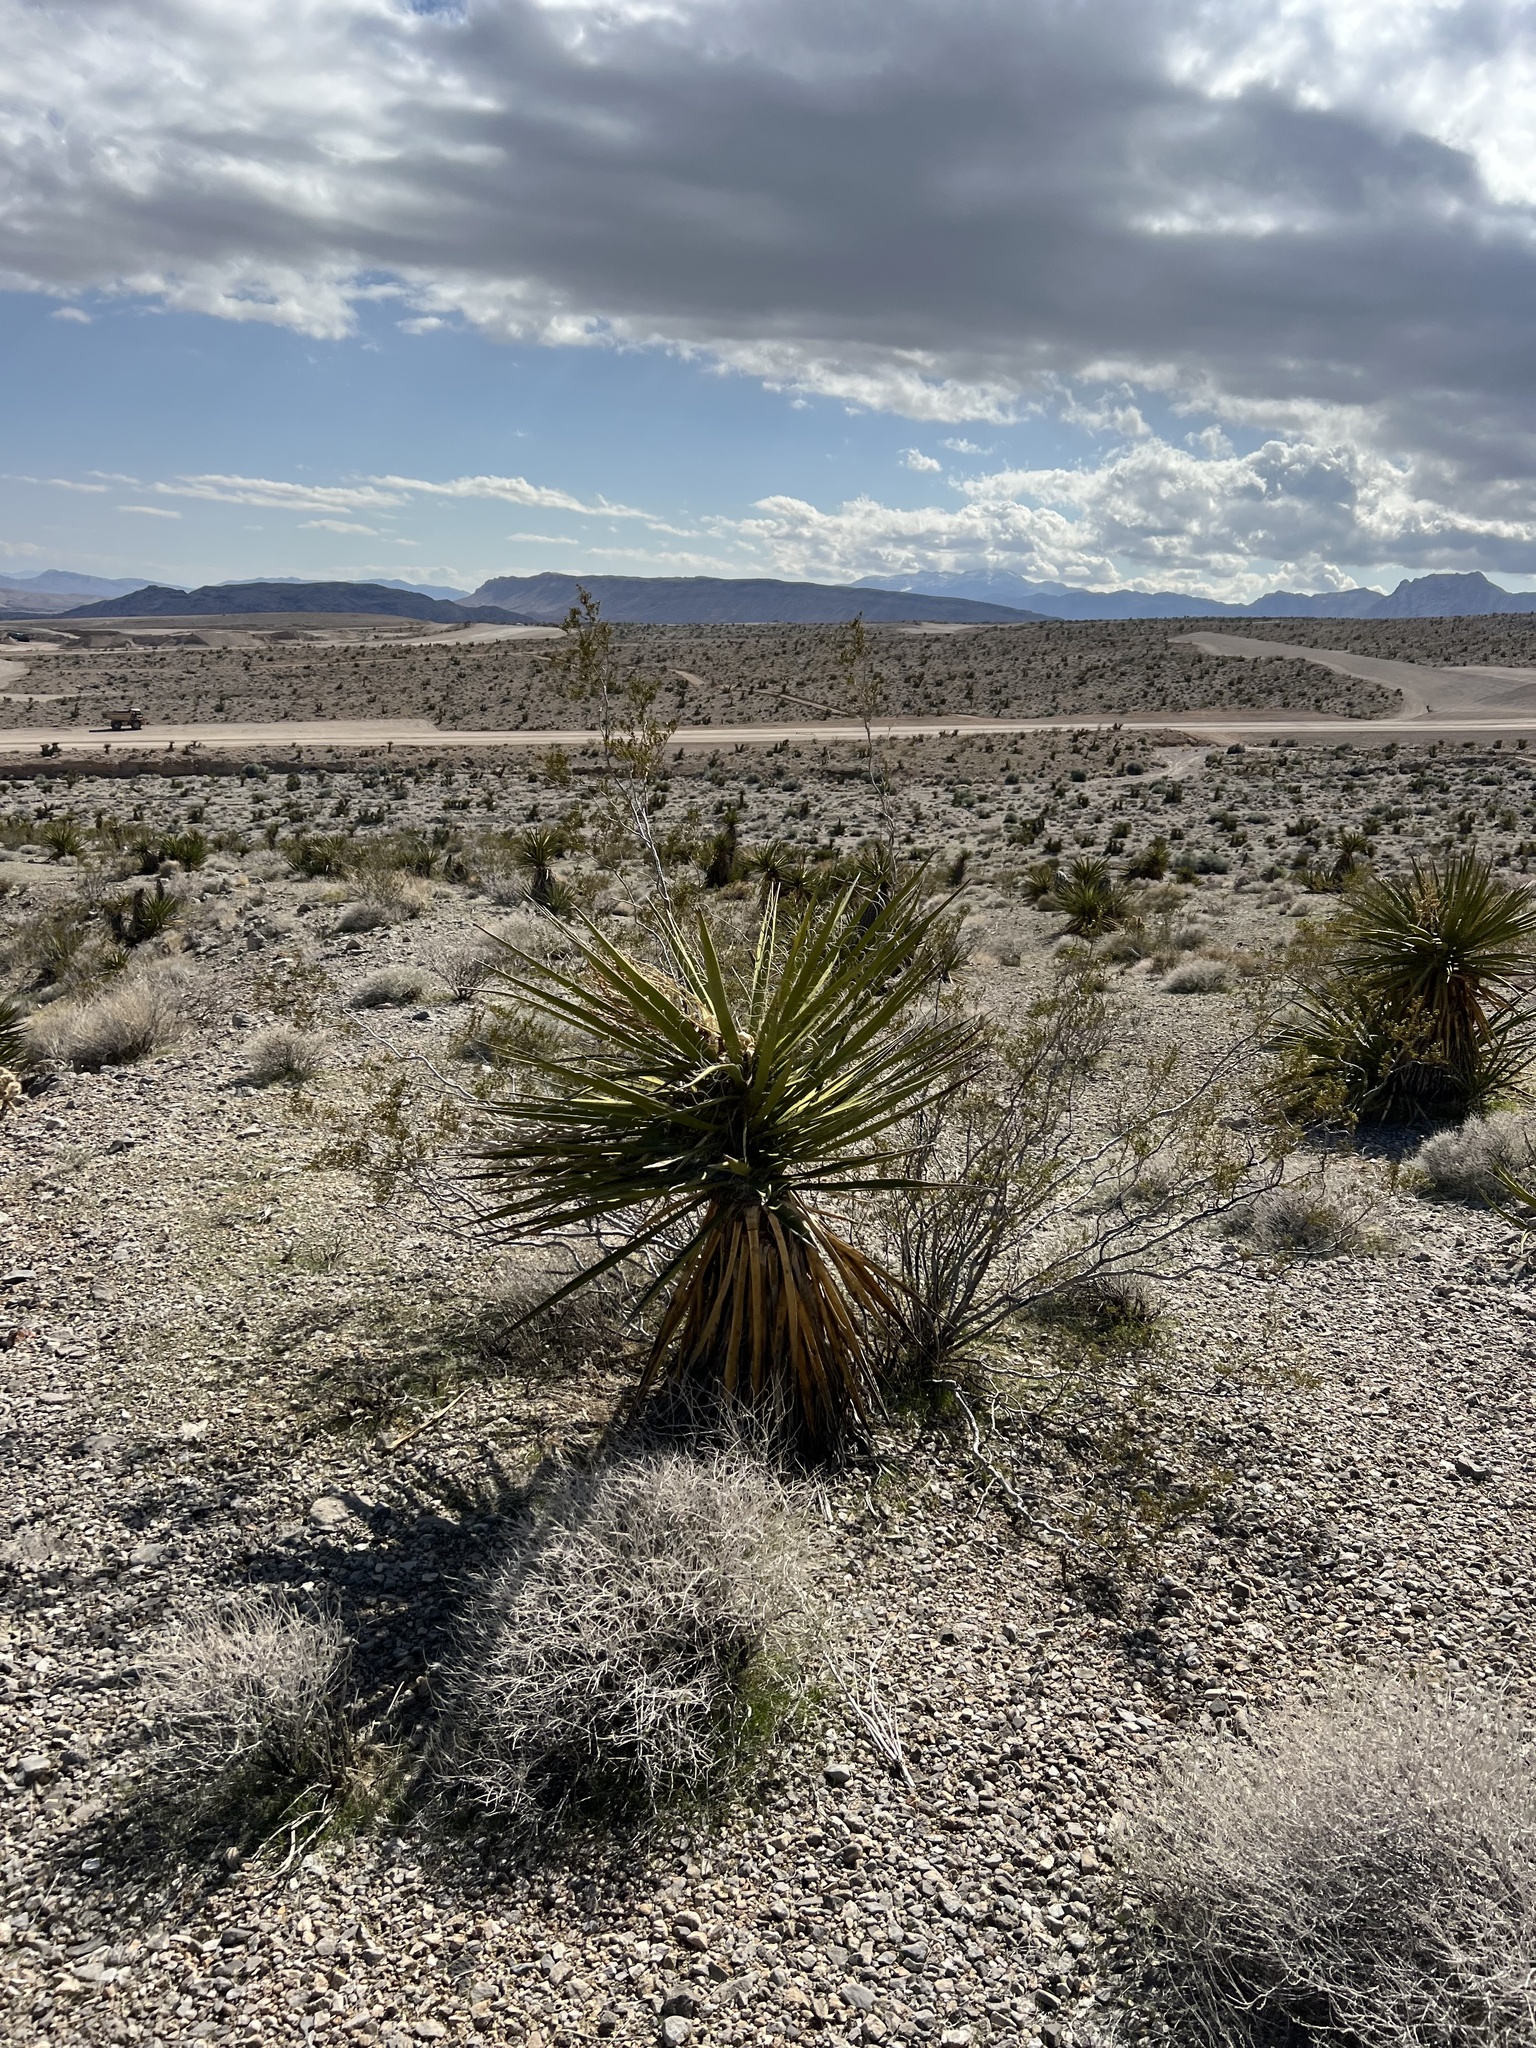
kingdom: Plantae
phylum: Tracheophyta
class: Liliopsida
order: Asparagales
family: Asparagaceae
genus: Yucca
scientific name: Yucca schidigera
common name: Mojave yucca
